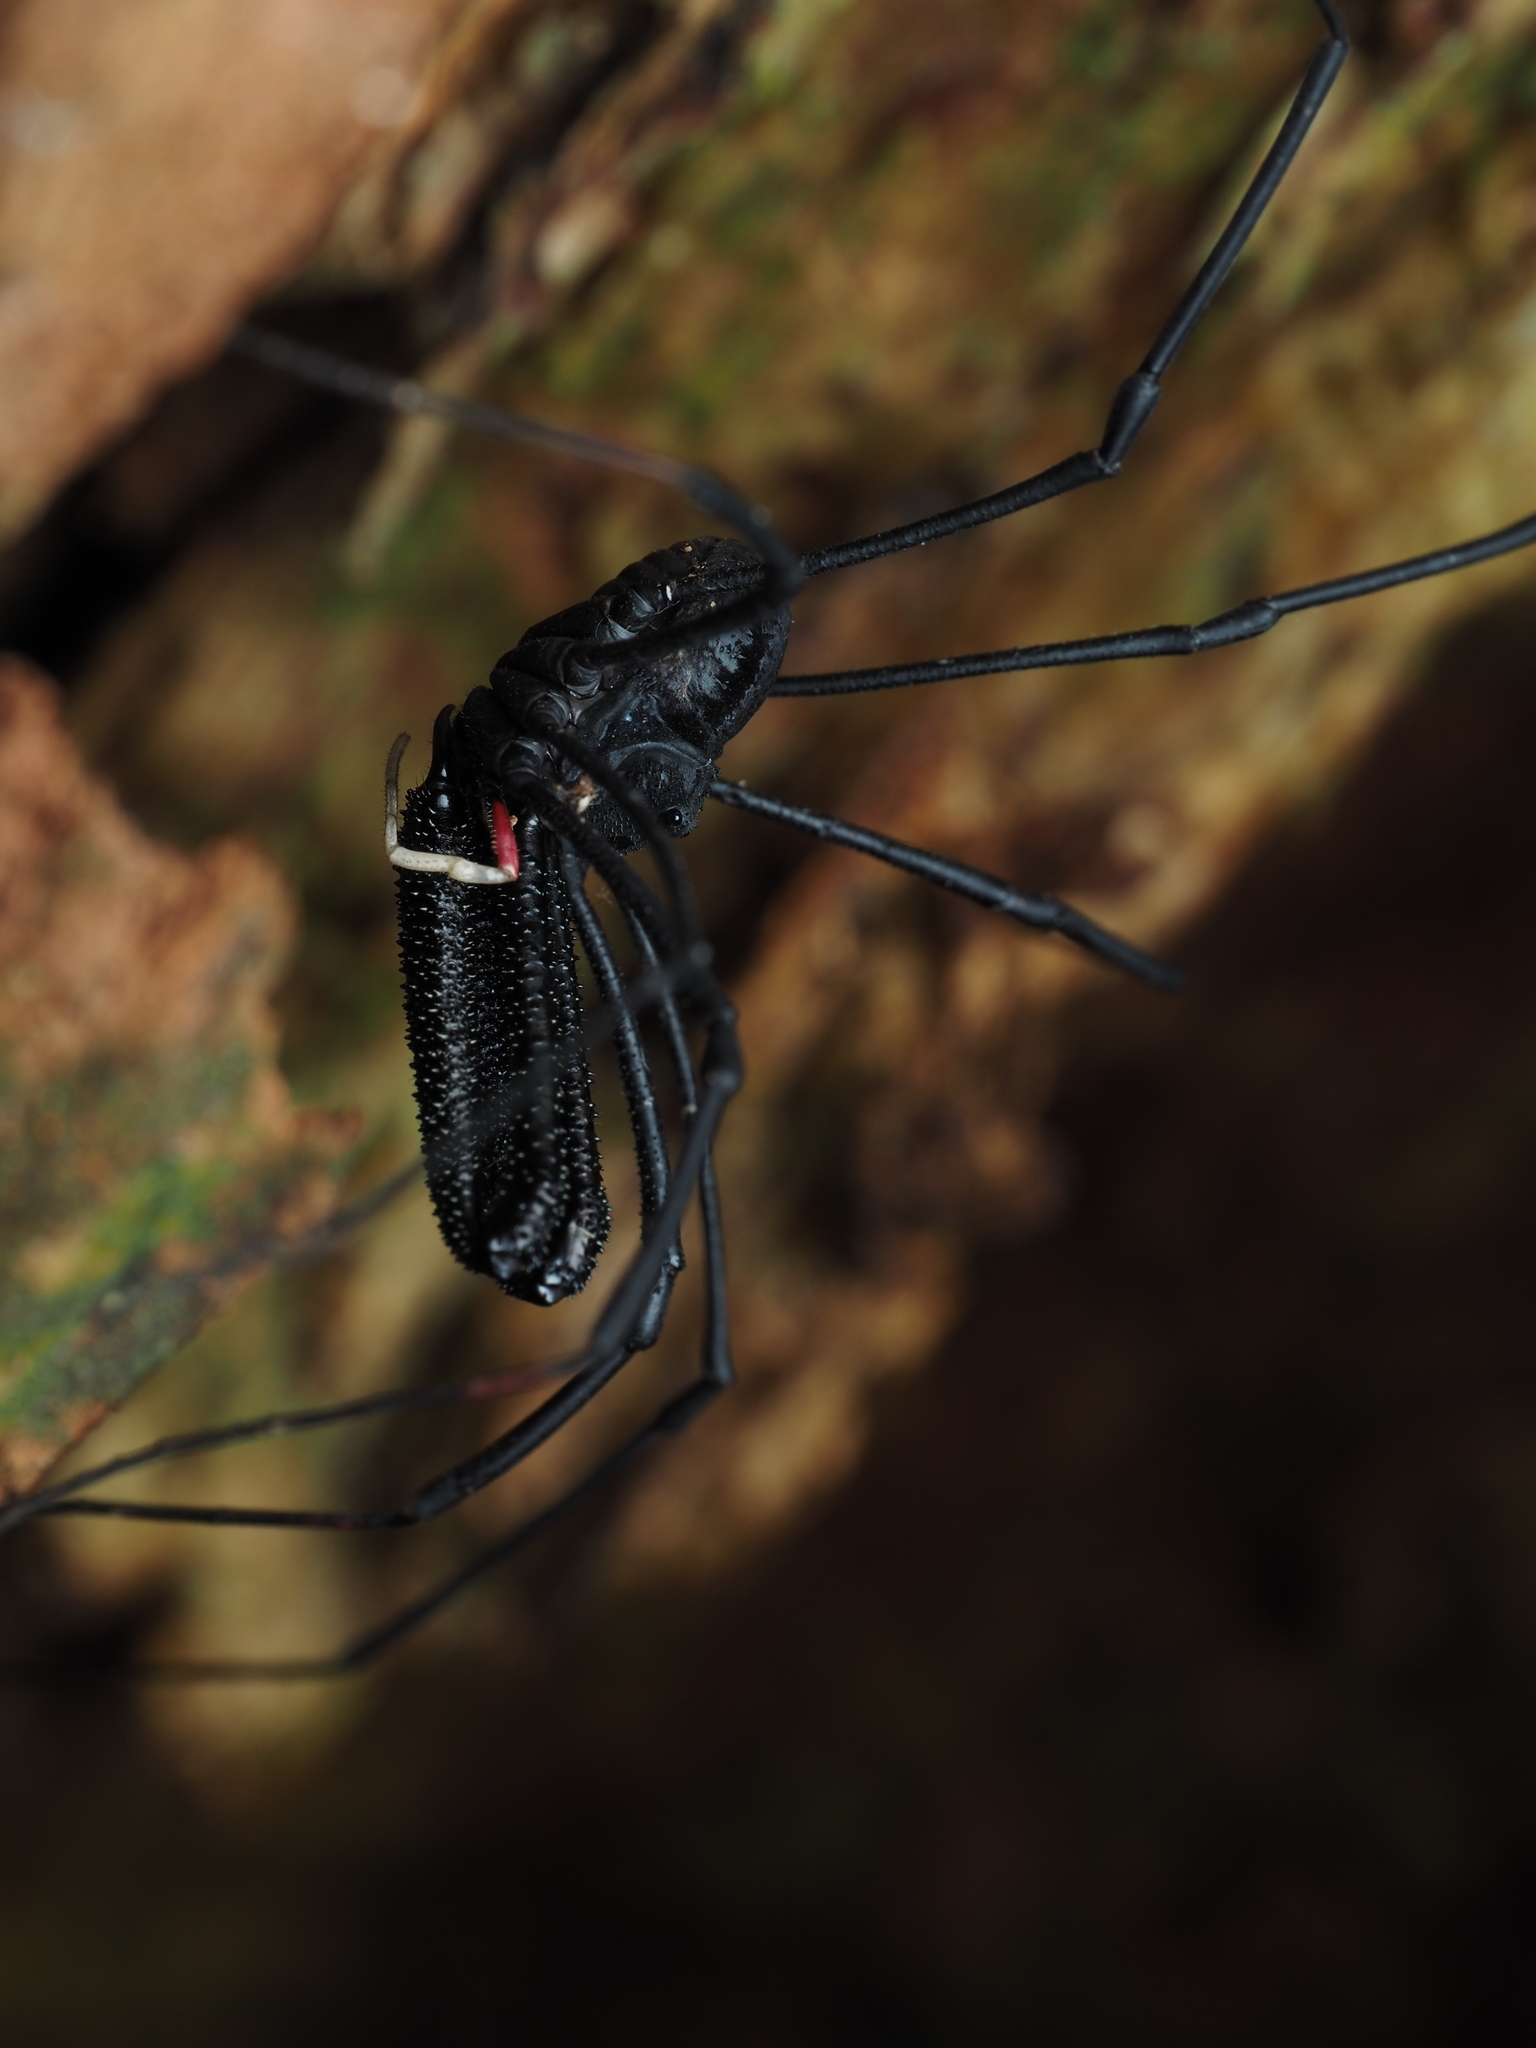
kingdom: Animalia
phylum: Arthropoda
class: Arachnida
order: Opiliones
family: Neopilionidae
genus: Forsteropsalis
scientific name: Forsteropsalis inconstans
